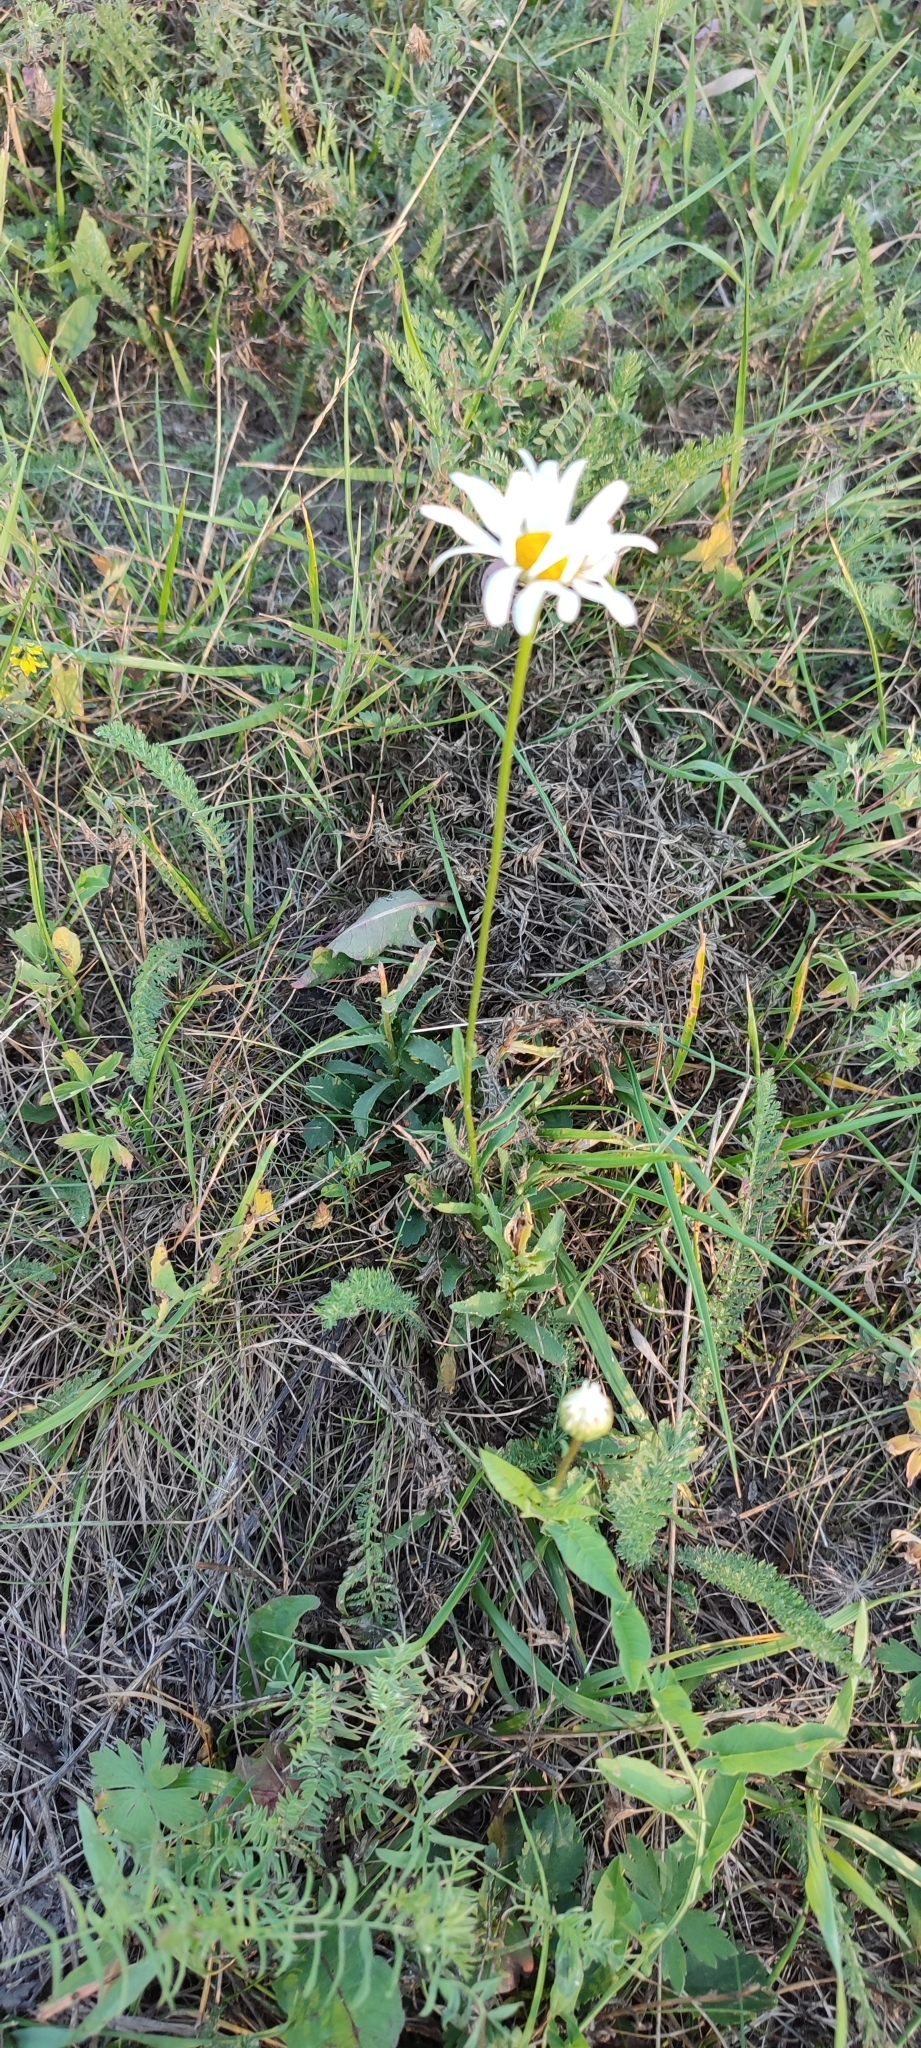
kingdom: Plantae
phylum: Tracheophyta
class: Magnoliopsida
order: Asterales
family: Asteraceae
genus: Leucanthemum
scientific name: Leucanthemum ircutianum
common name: Daisy
